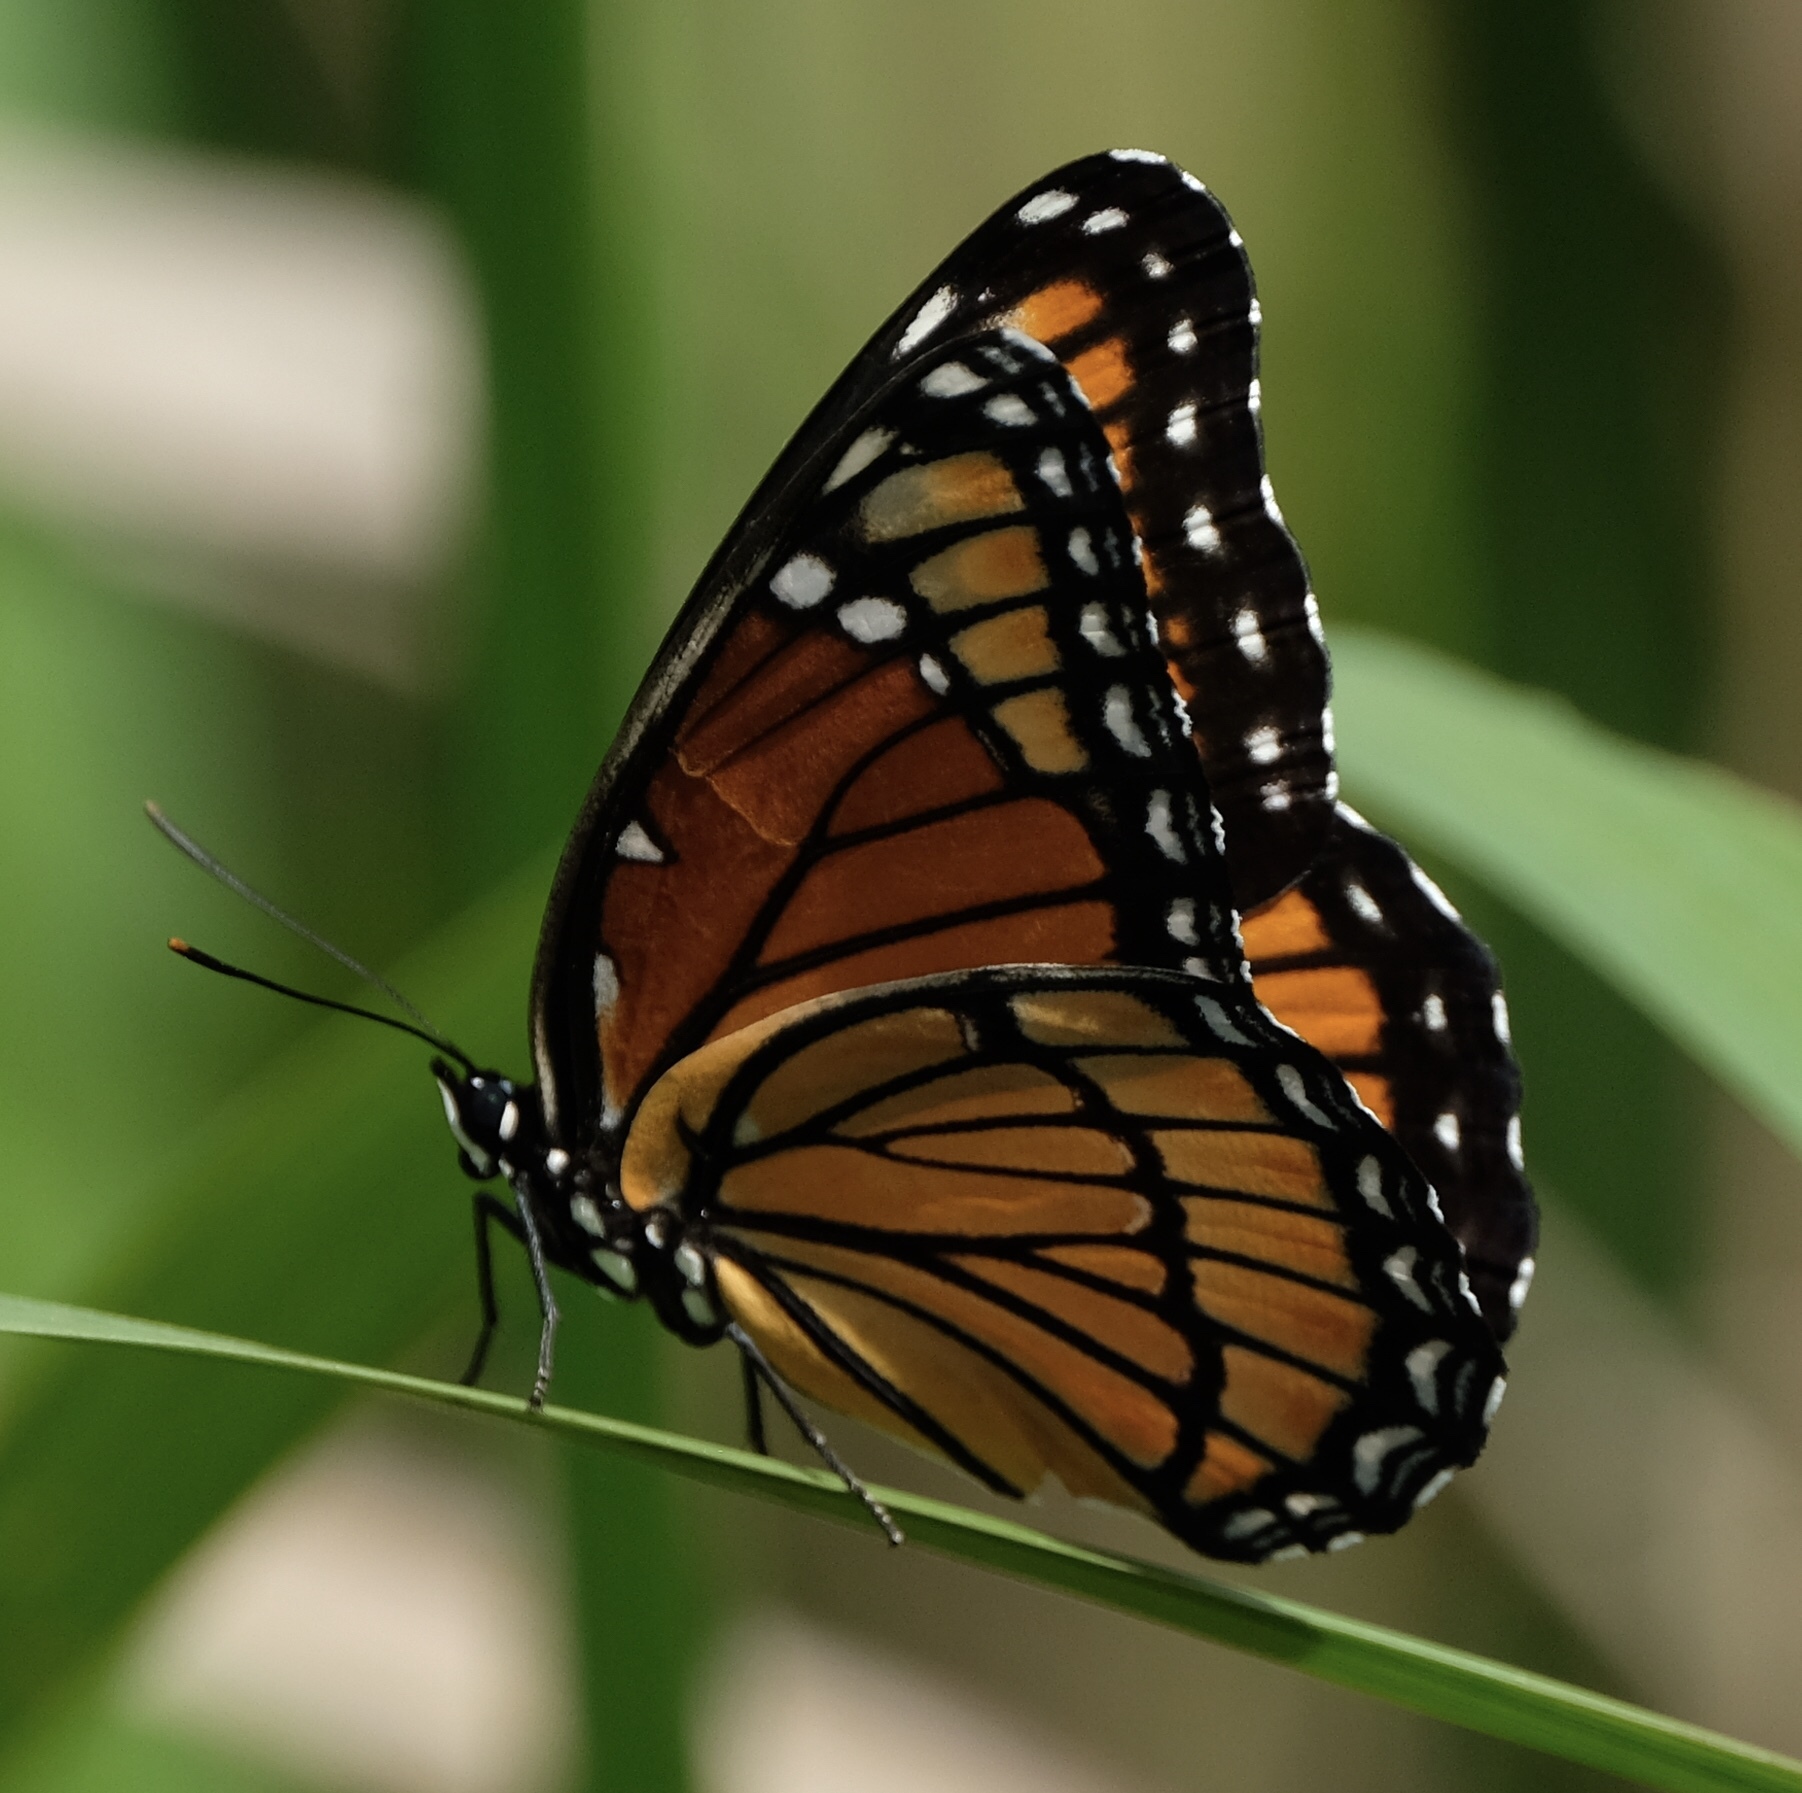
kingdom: Animalia
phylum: Arthropoda
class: Insecta
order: Lepidoptera
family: Nymphalidae
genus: Limenitis
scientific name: Limenitis archippus
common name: Viceroy
